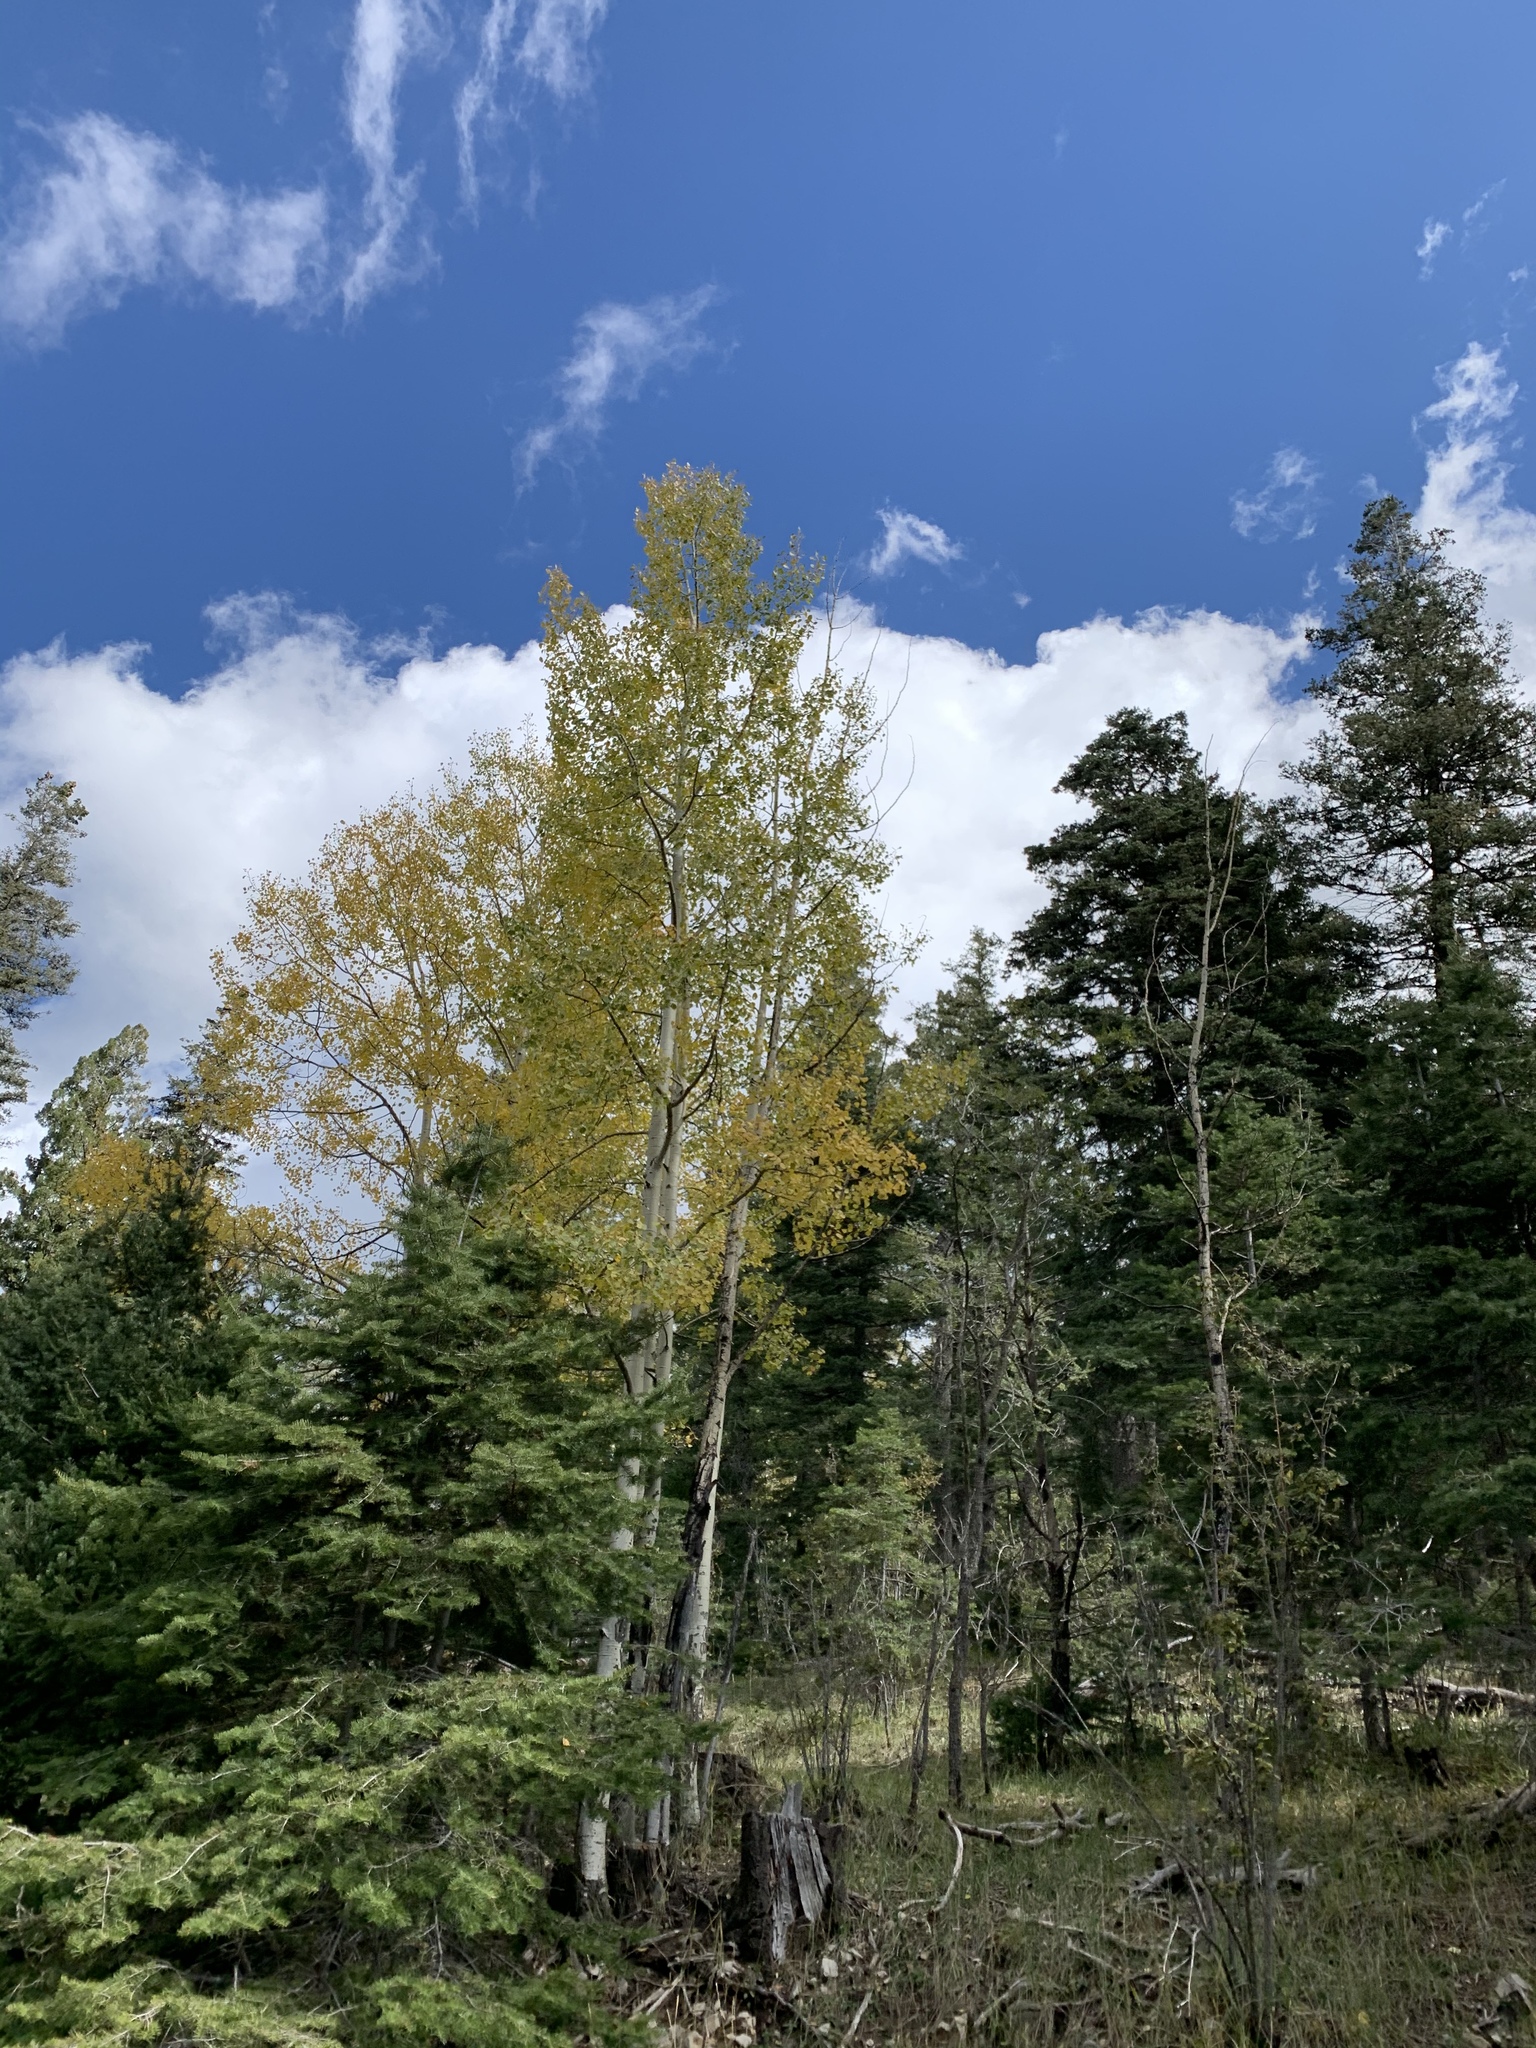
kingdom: Plantae
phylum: Tracheophyta
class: Magnoliopsida
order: Malpighiales
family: Salicaceae
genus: Populus
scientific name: Populus tremuloides
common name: Quaking aspen
